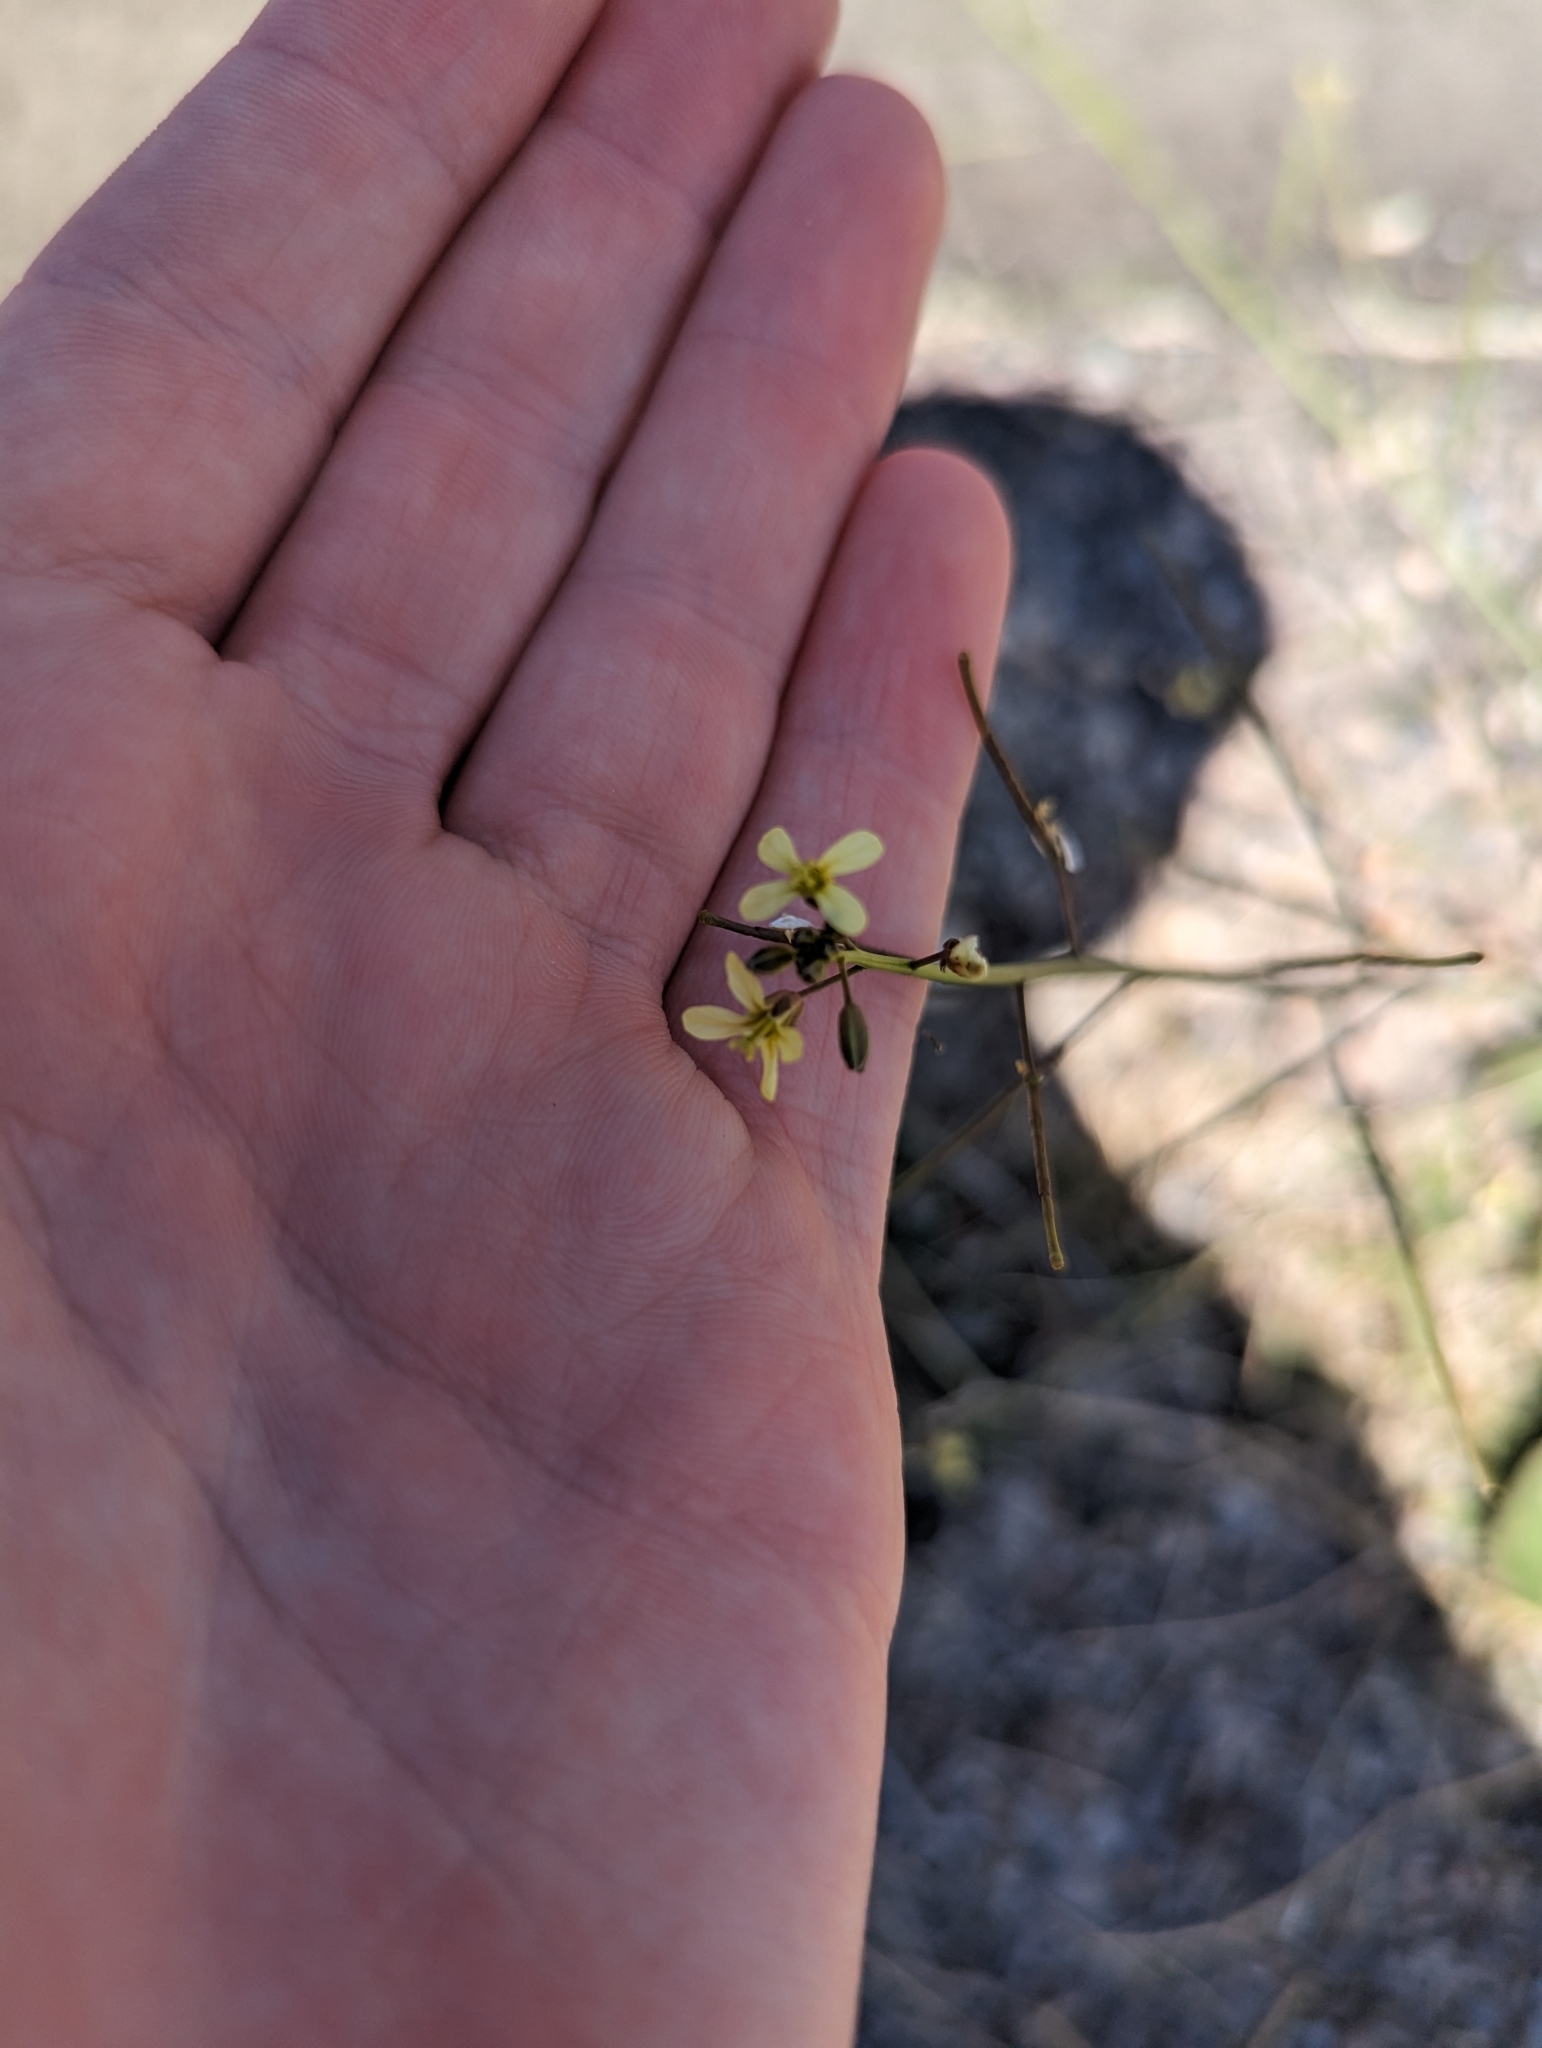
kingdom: Plantae
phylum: Tracheophyta
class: Magnoliopsida
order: Brassicales
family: Brassicaceae
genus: Brassica
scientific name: Brassica tournefortii
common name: Pale cabbage
